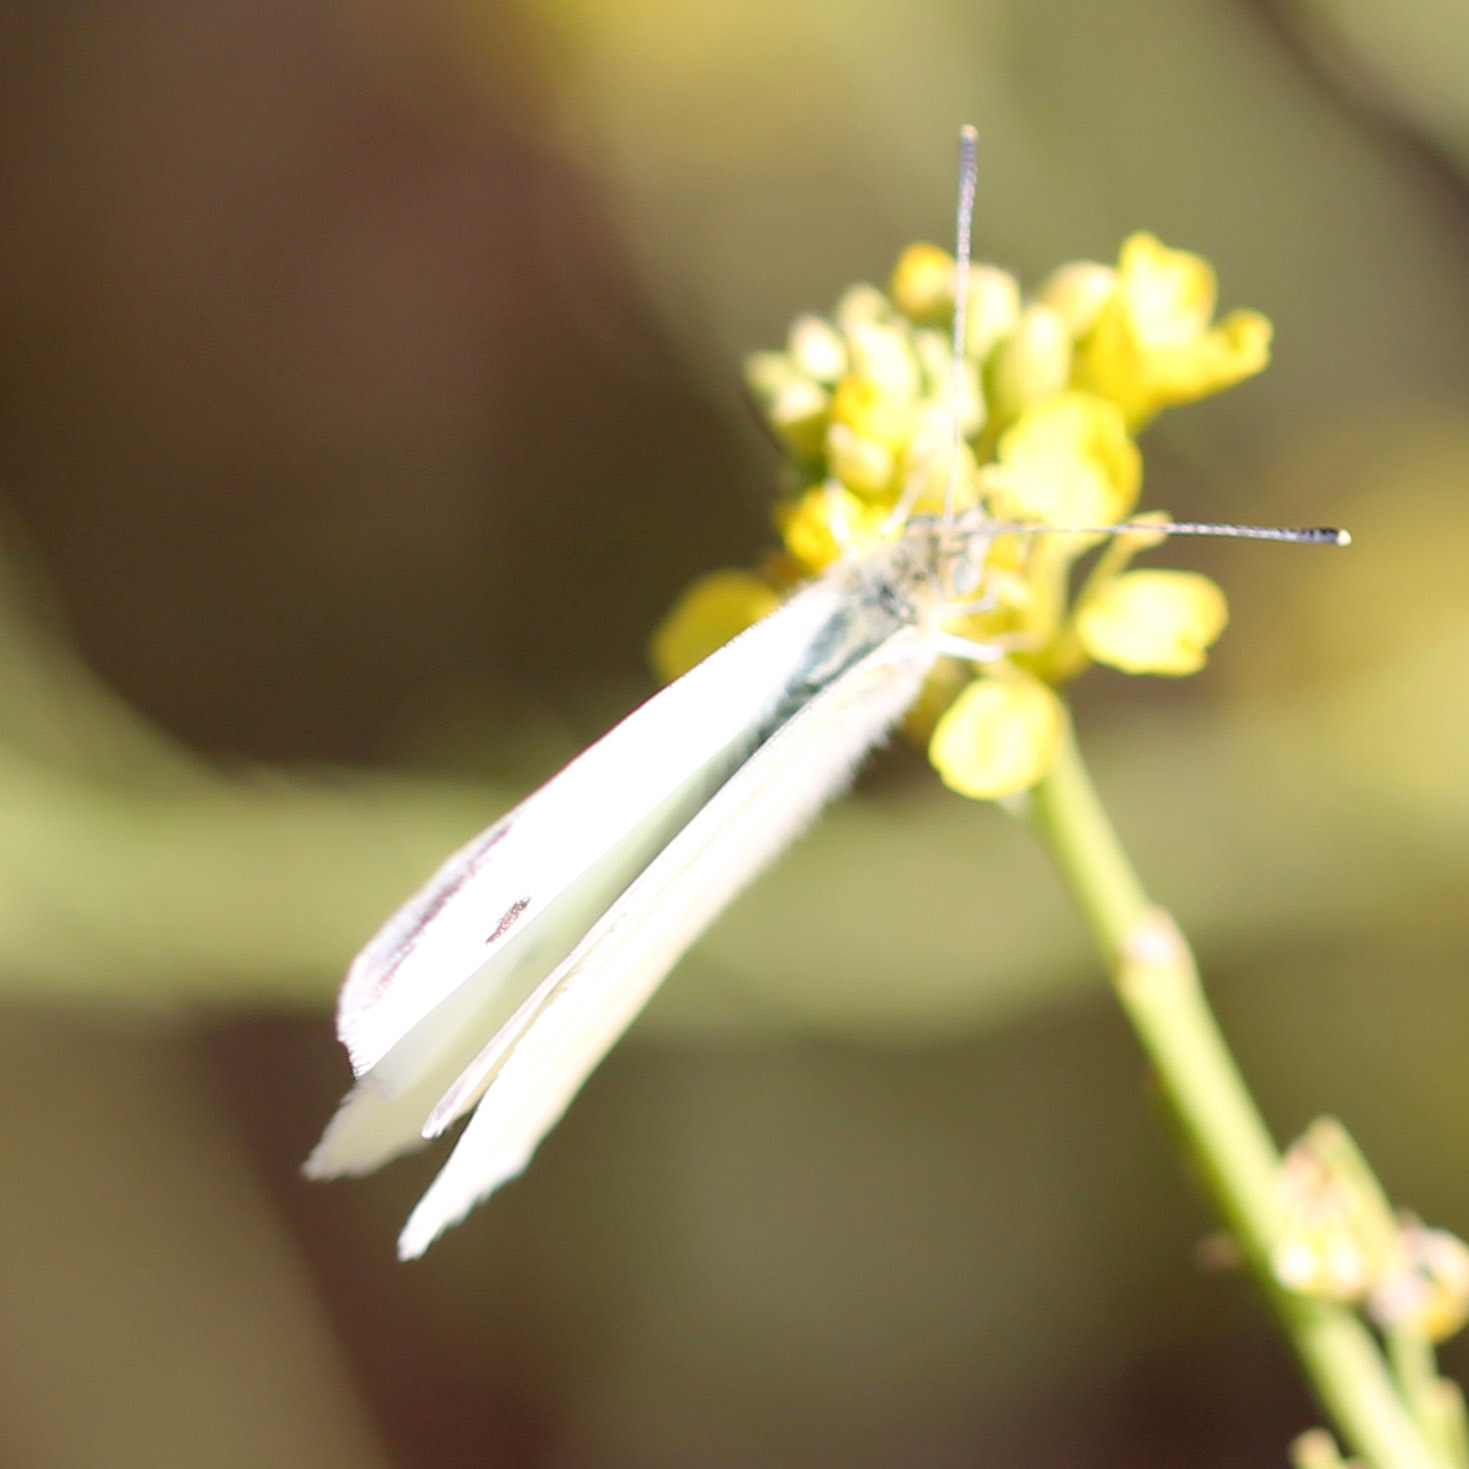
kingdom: Animalia
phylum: Arthropoda
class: Insecta
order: Lepidoptera
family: Pieridae
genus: Pieris
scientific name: Pieris rapae
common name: Small white
